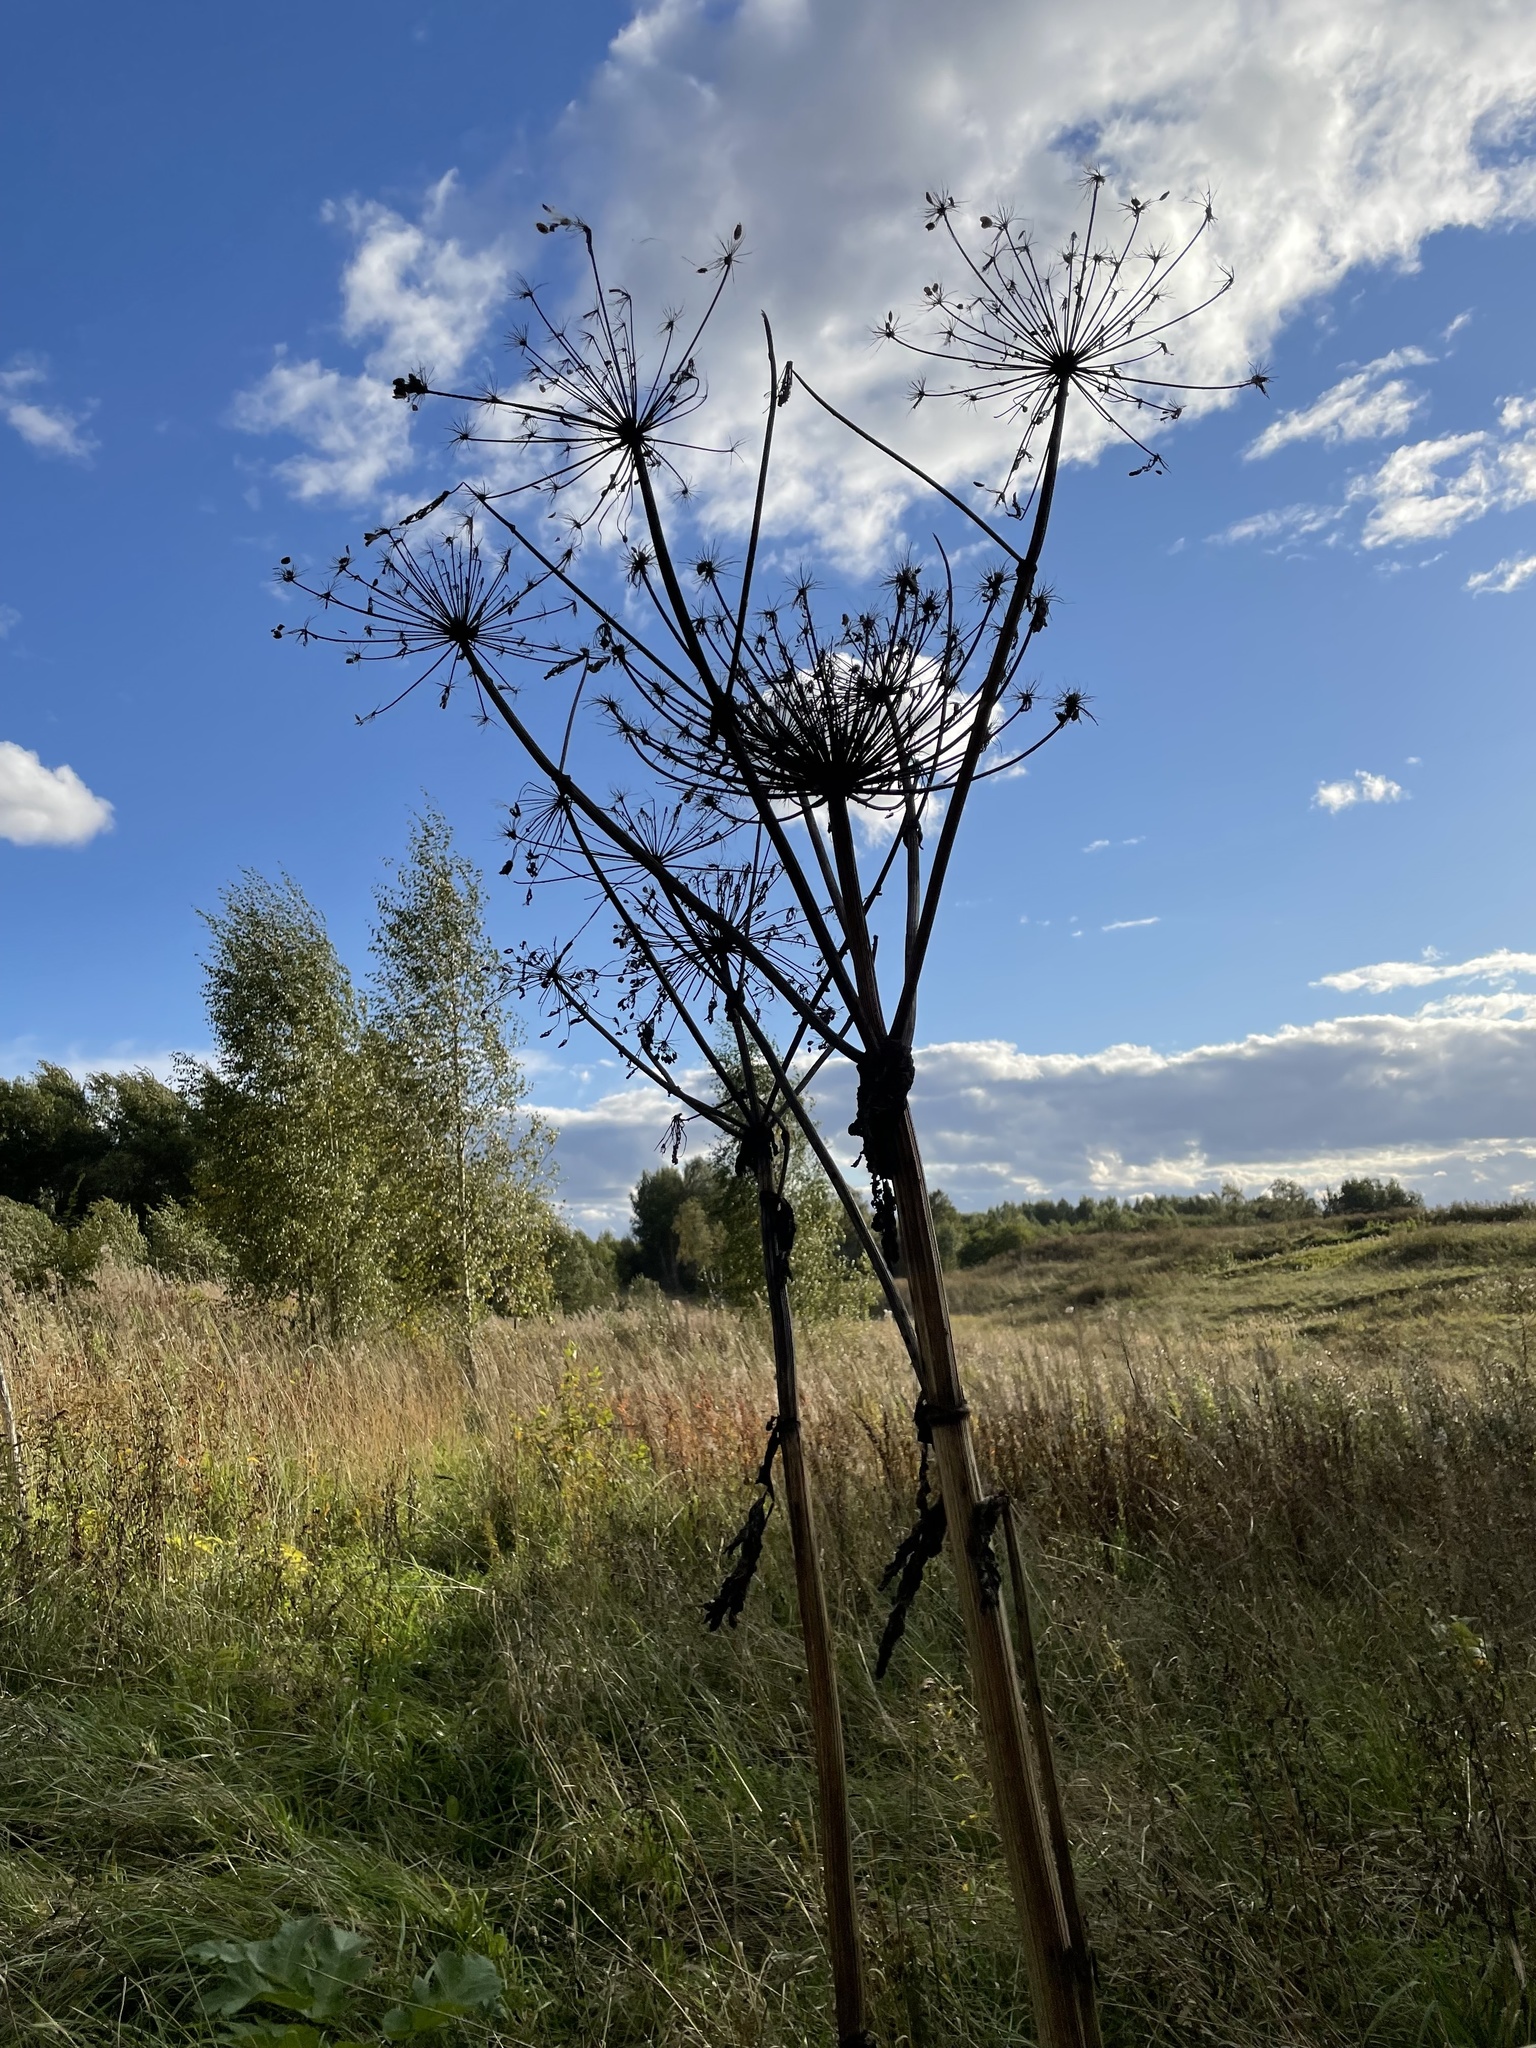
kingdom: Plantae
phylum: Tracheophyta
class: Magnoliopsida
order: Apiales
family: Apiaceae
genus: Heracleum
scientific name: Heracleum sosnowskyi
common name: Sosnowsky's hogweed
